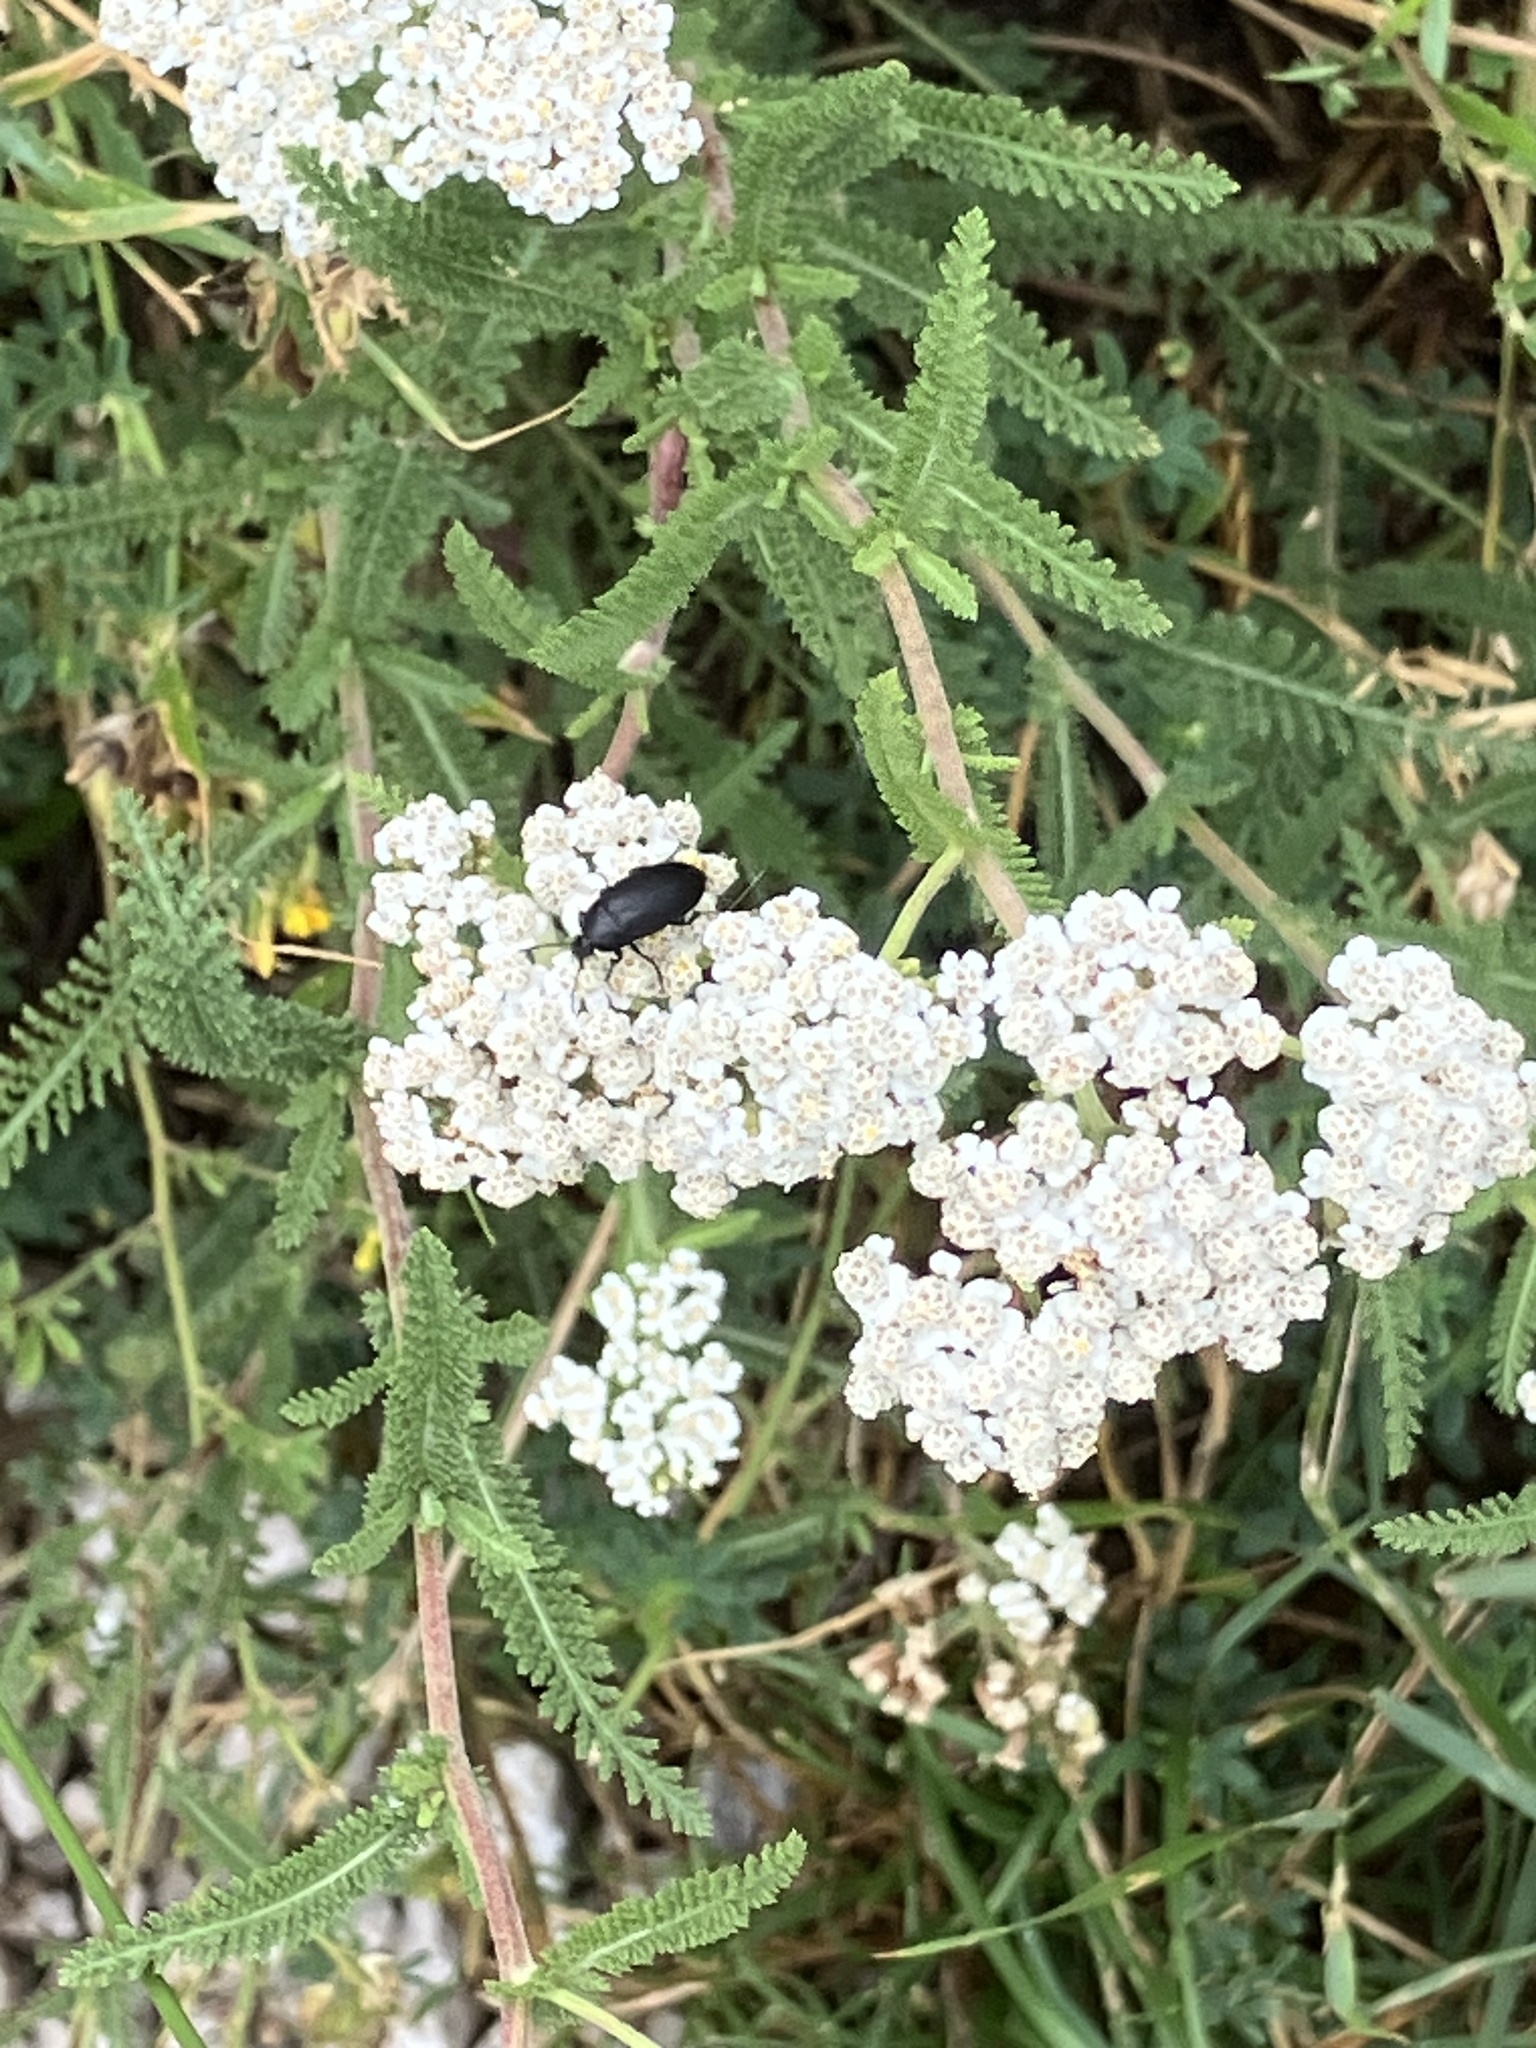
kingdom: Plantae
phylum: Tracheophyta
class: Magnoliopsida
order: Asterales
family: Asteraceae
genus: Achillea
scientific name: Achillea millefolium
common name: Yarrow
